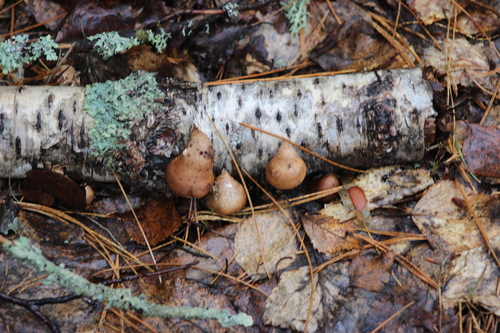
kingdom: Fungi
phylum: Basidiomycota
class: Agaricomycetes
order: Polyporales
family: Fomitopsidaceae
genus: Fomitopsis
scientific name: Fomitopsis betulina
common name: Birch polypore
